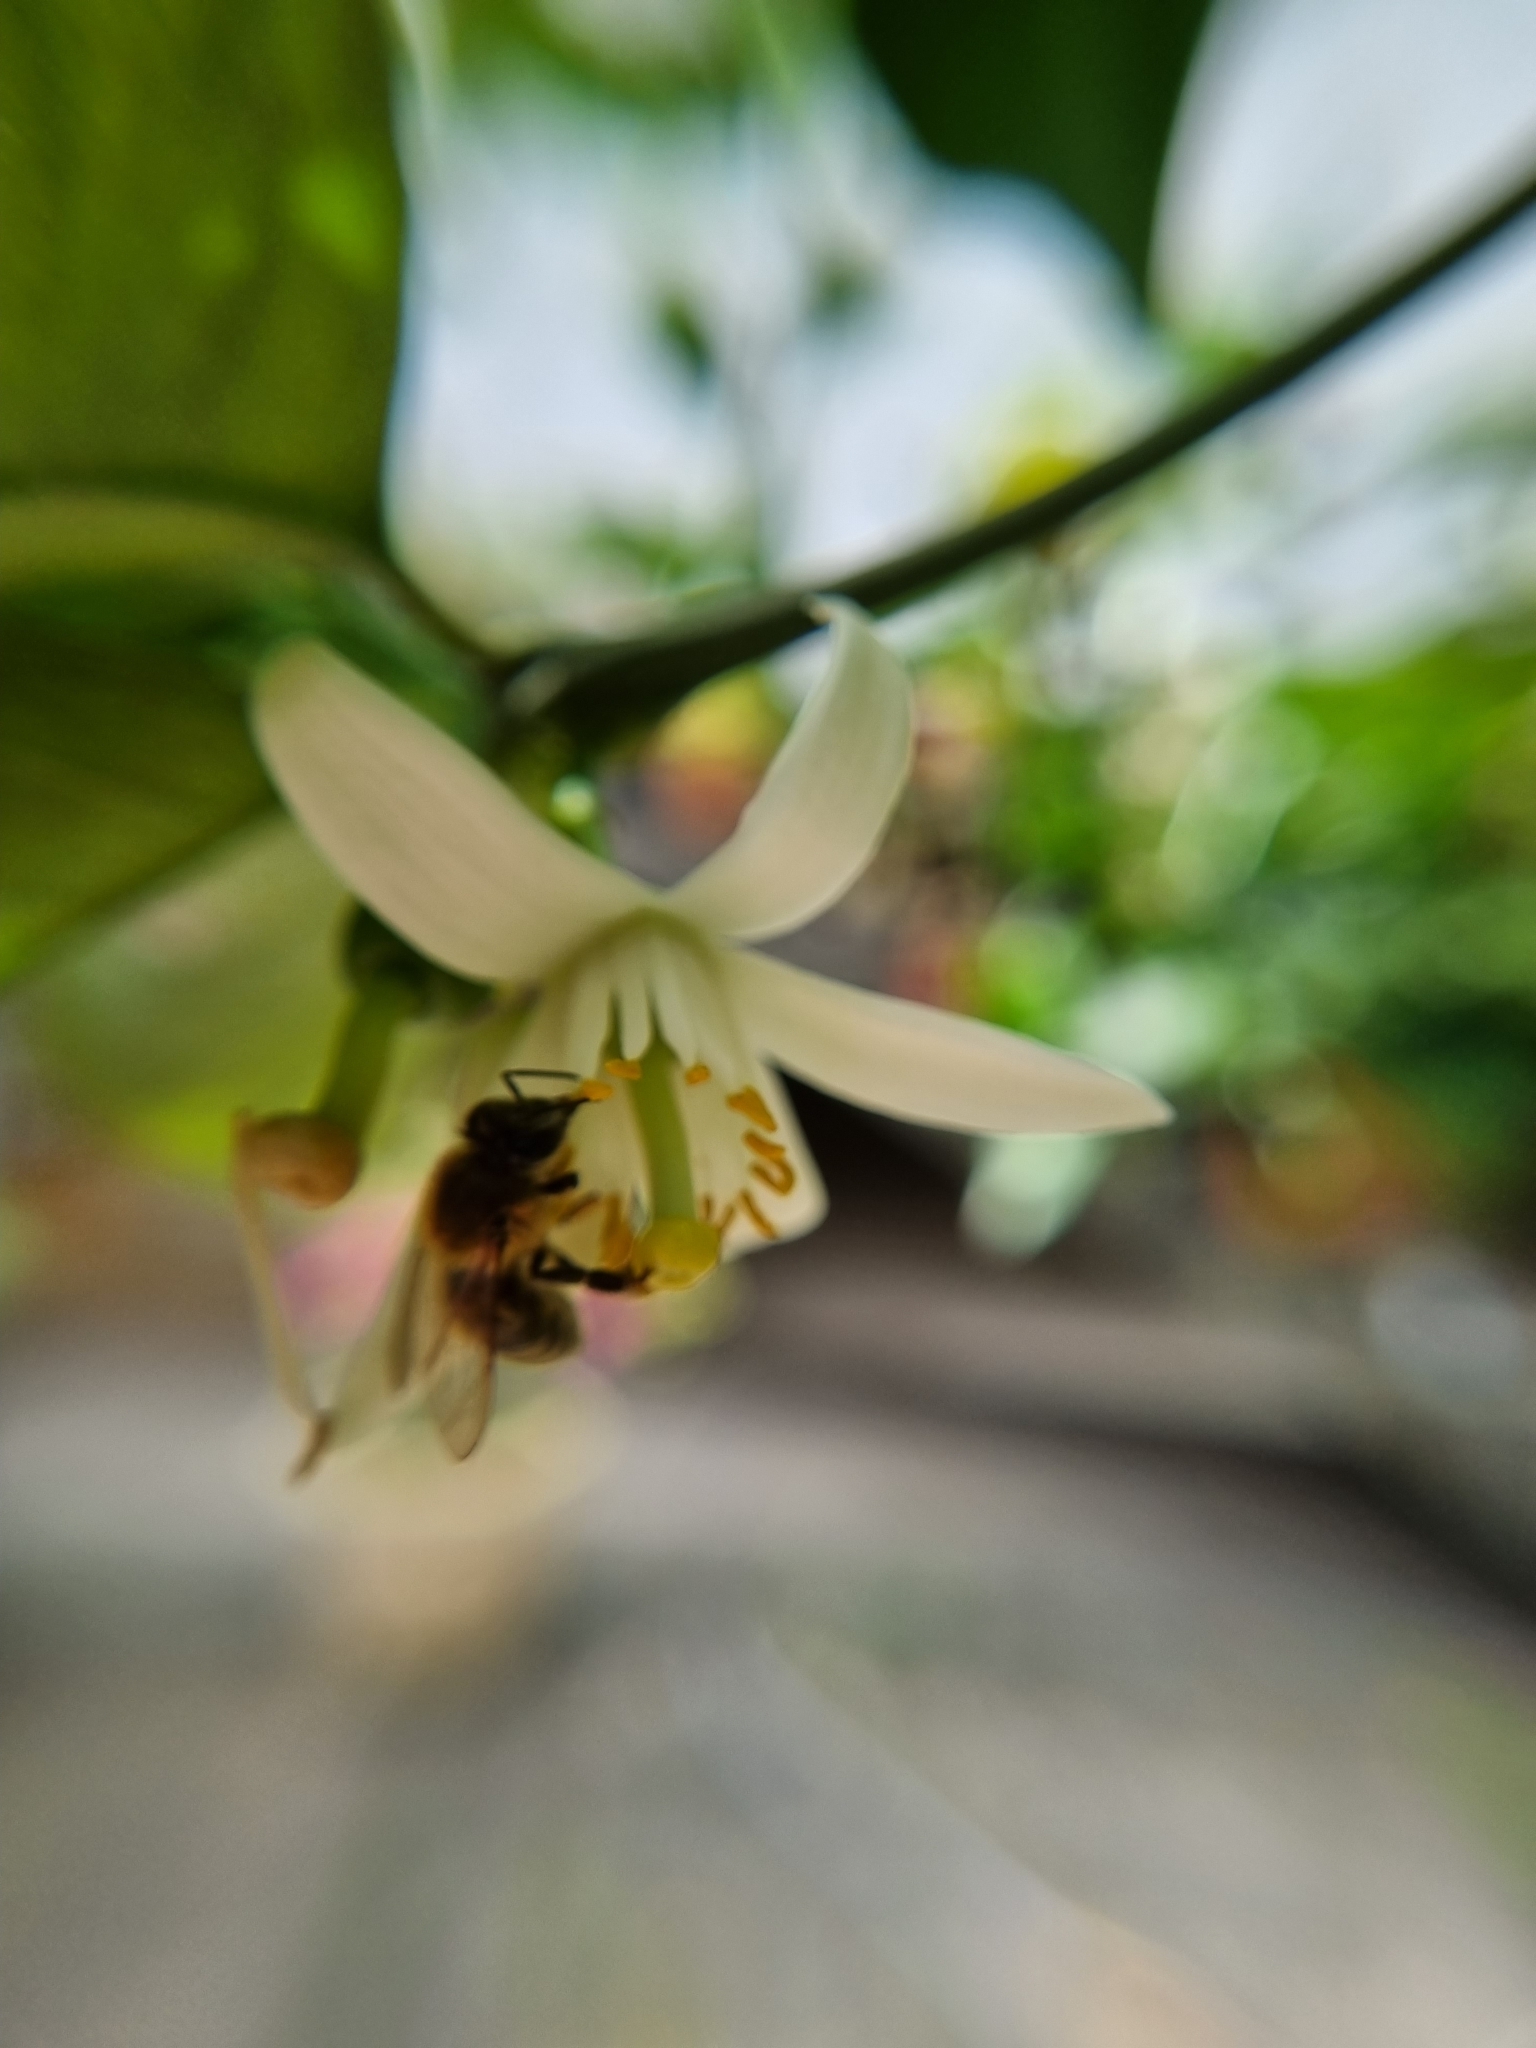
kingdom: Animalia
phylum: Arthropoda
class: Insecta
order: Hymenoptera
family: Apidae
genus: Apis
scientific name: Apis mellifera
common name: Honey bee
